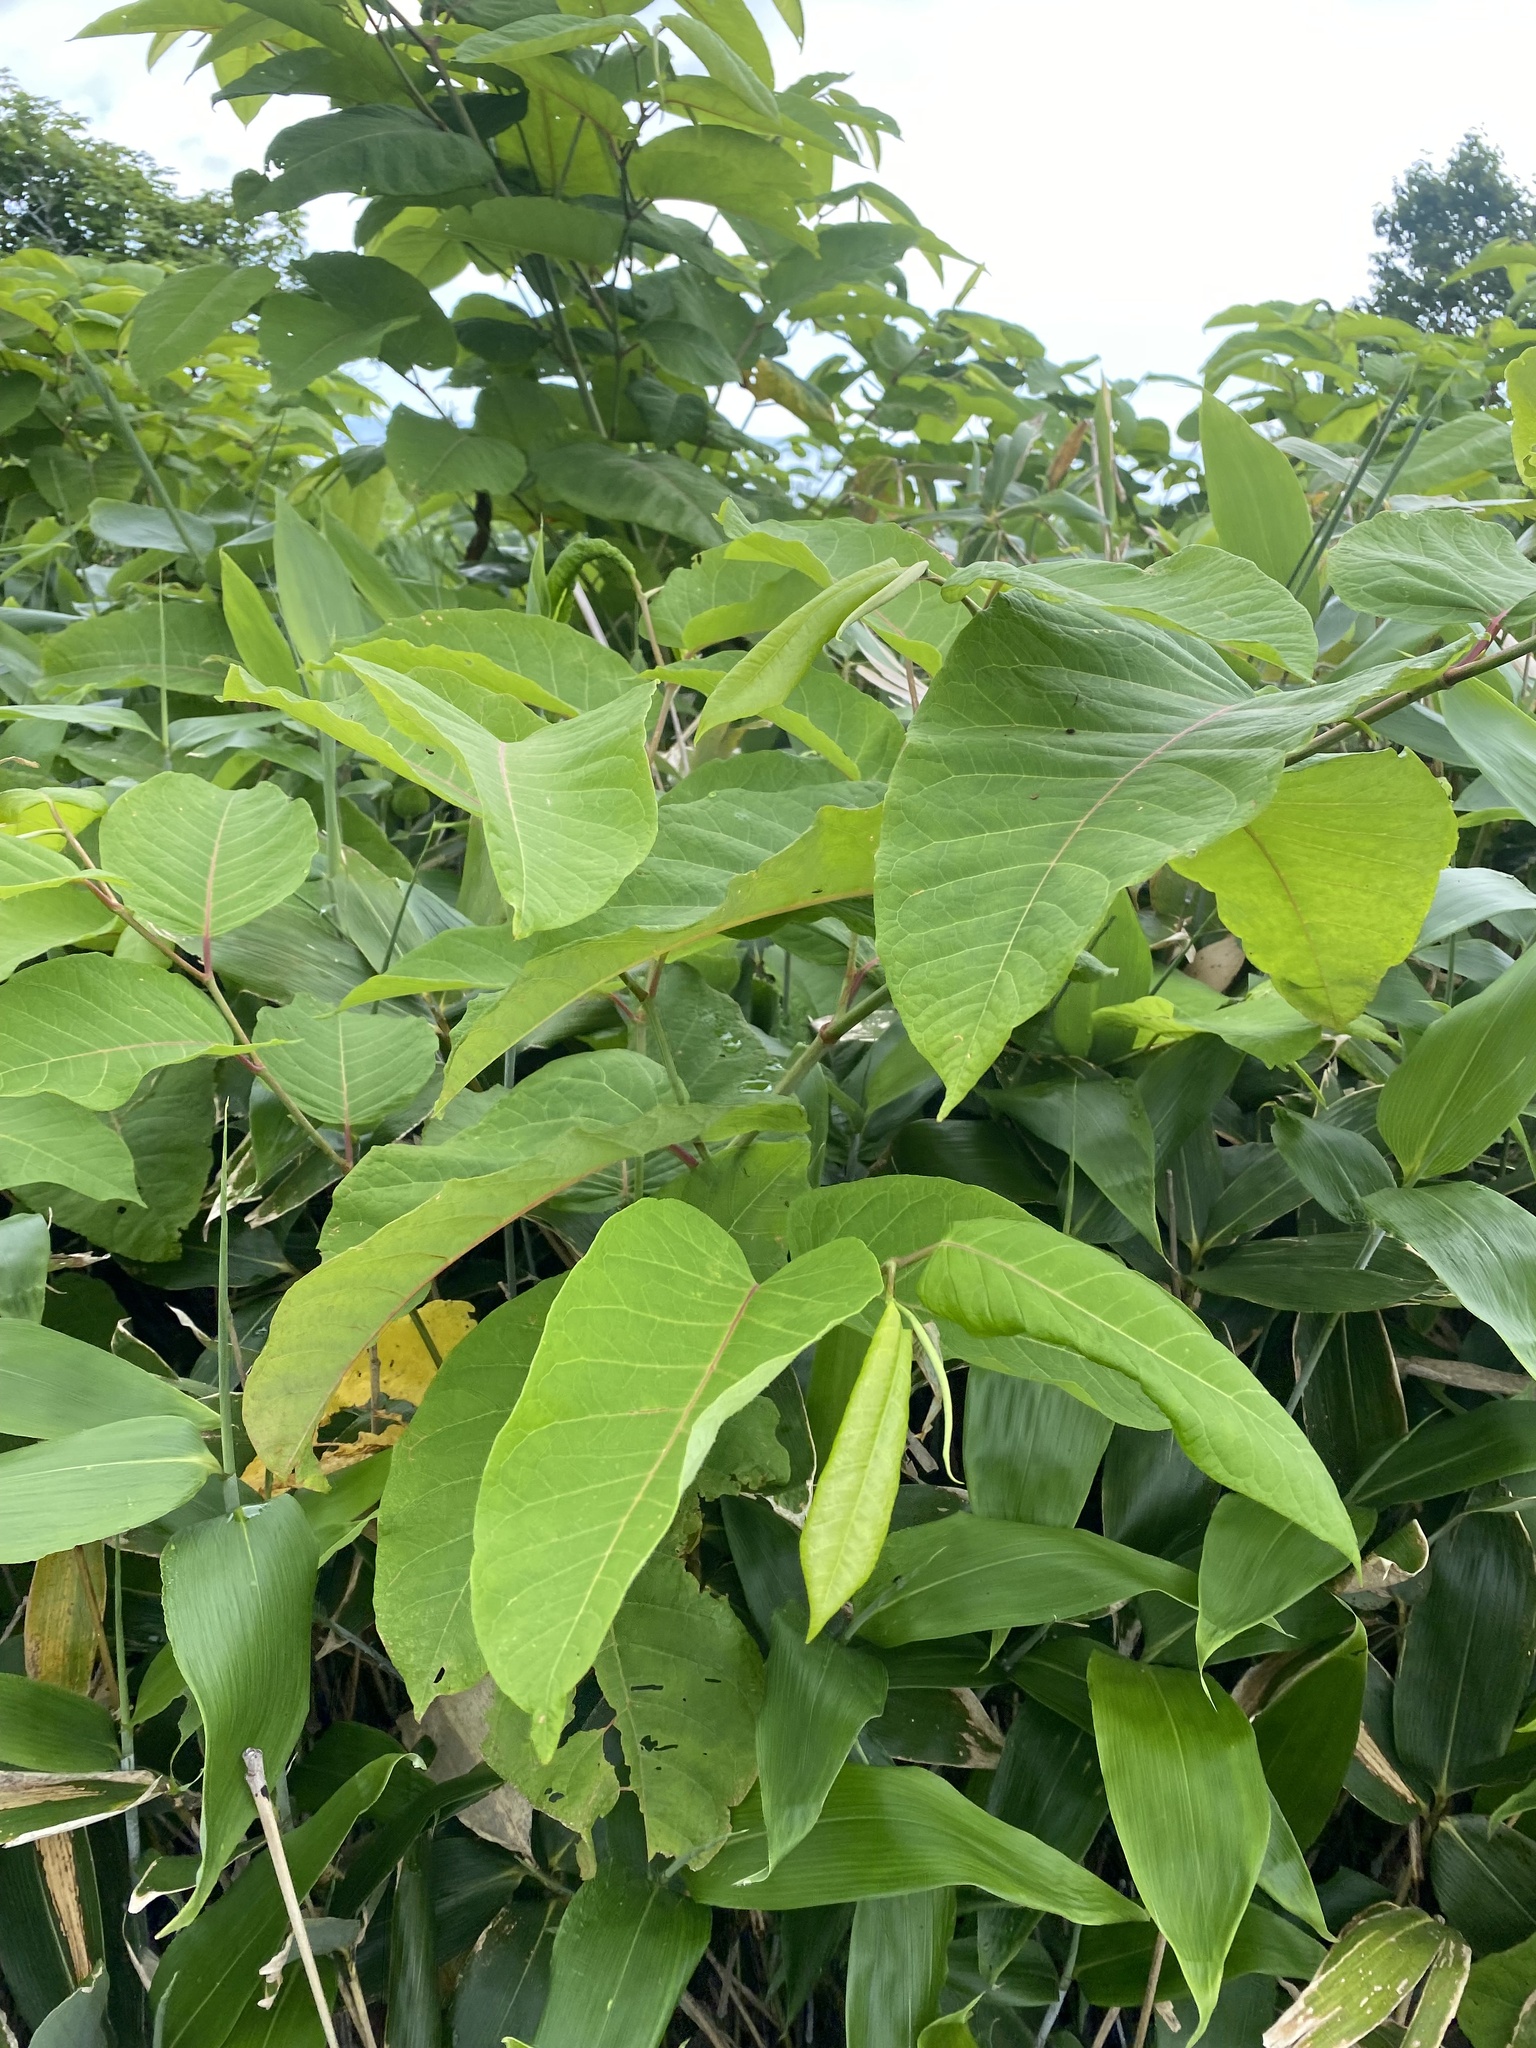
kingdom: Plantae
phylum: Tracheophyta
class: Magnoliopsida
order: Caryophyllales
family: Polygonaceae
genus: Reynoutria
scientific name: Reynoutria sachalinensis
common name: Giant knotweed
